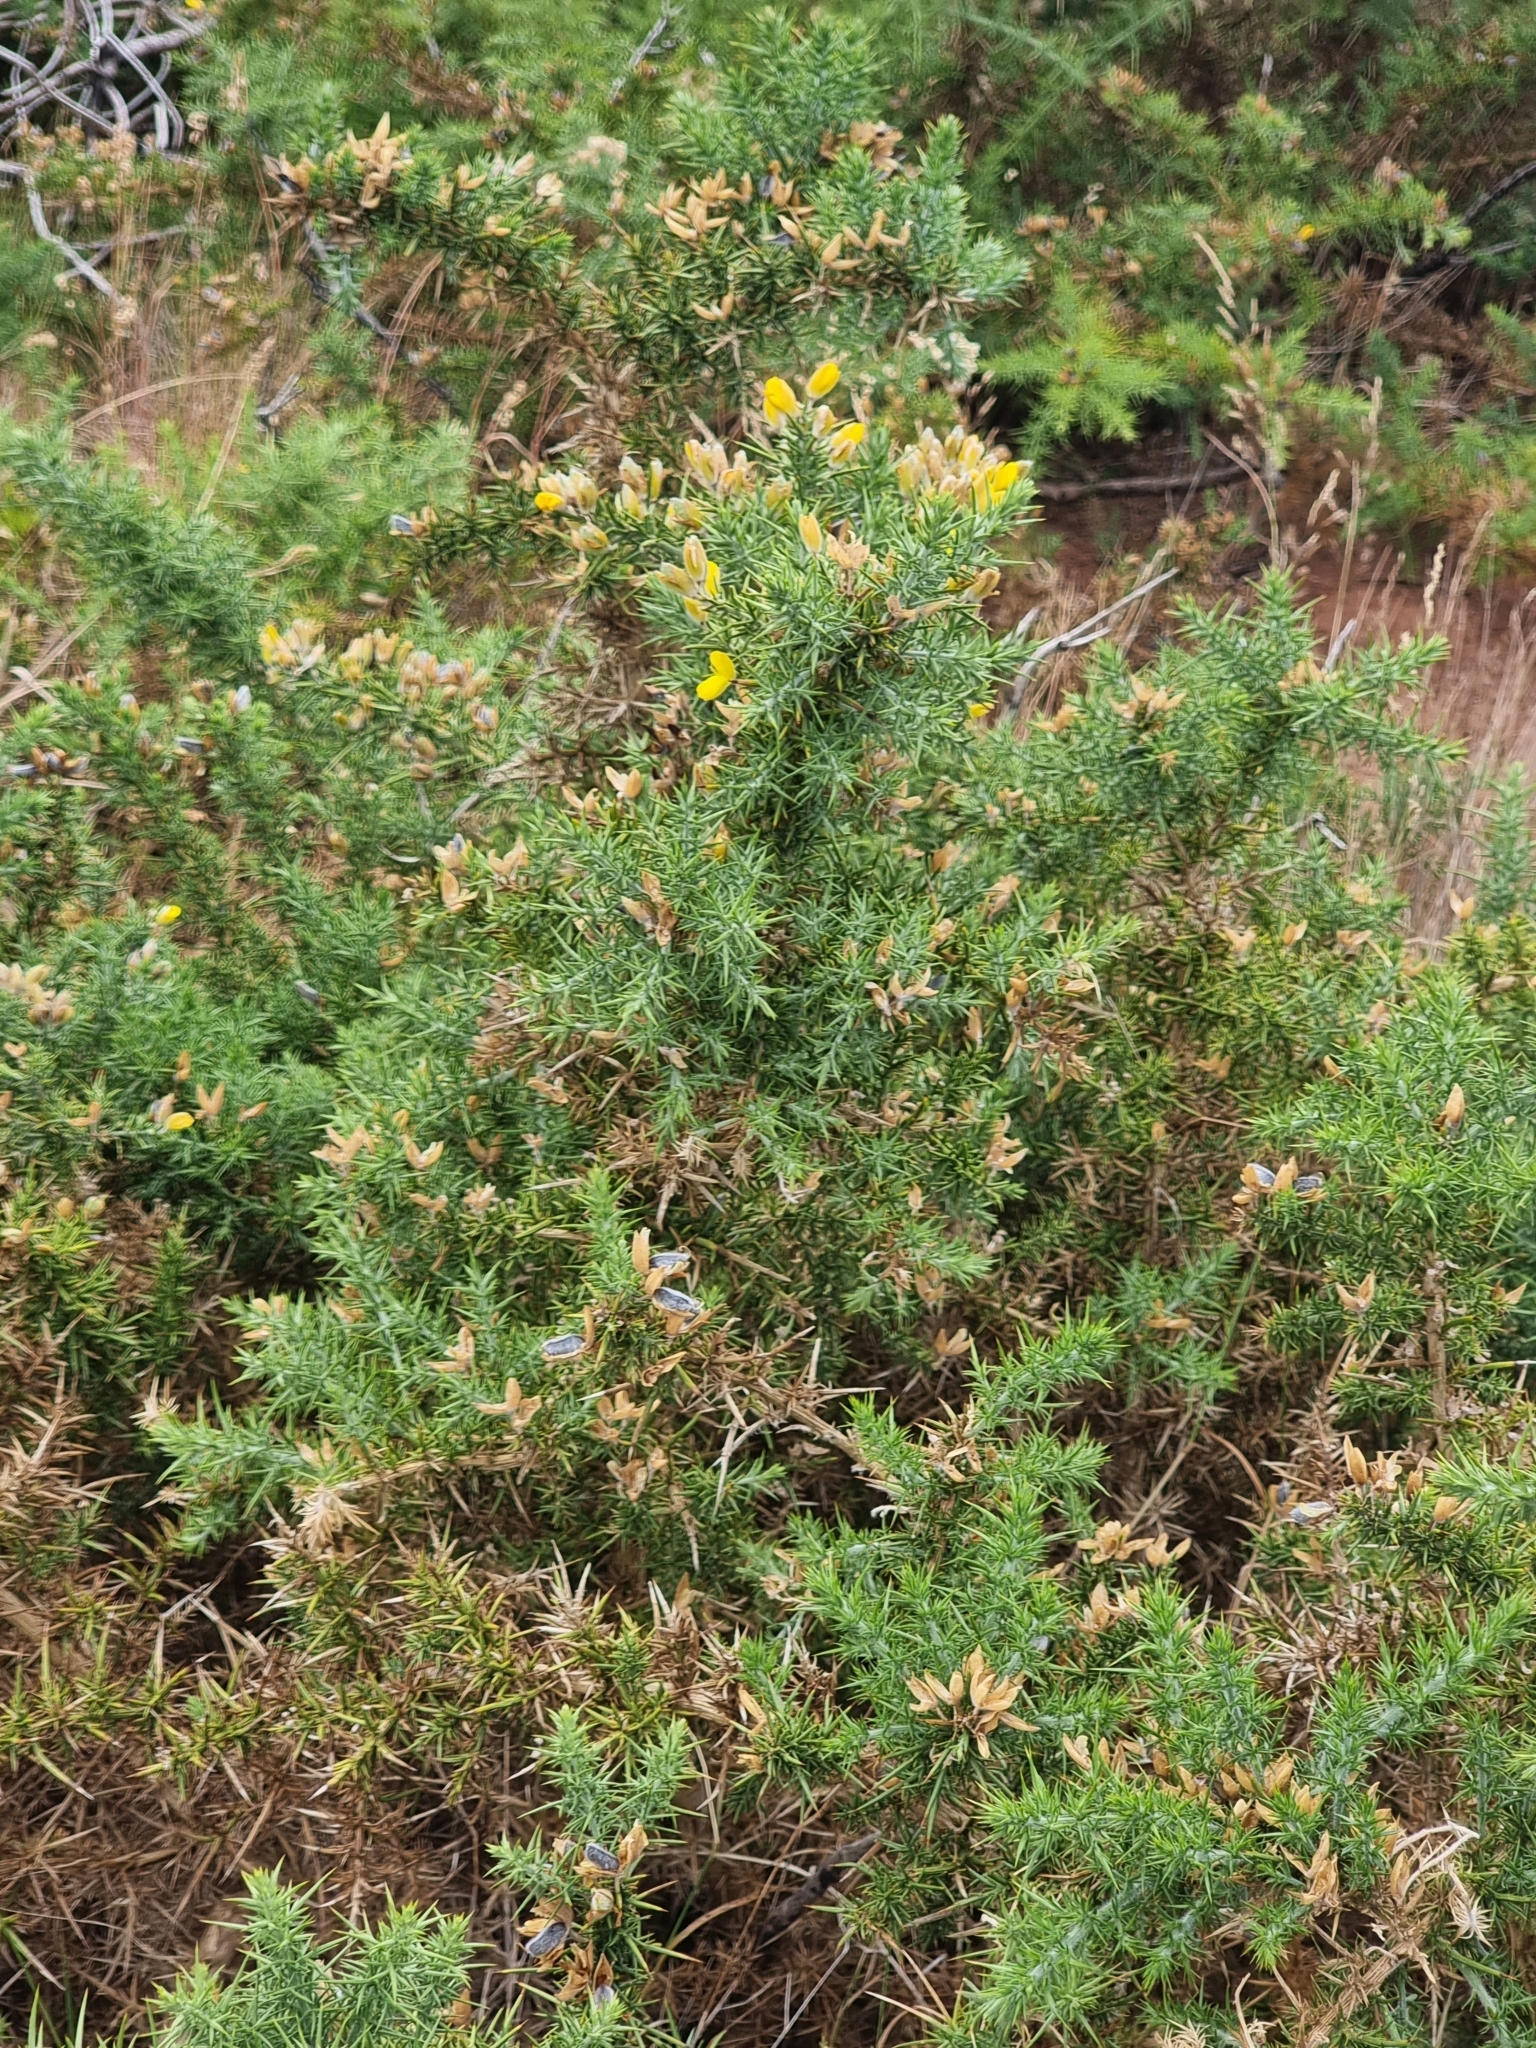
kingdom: Plantae
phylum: Tracheophyta
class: Magnoliopsida
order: Fabales
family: Fabaceae
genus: Ulex
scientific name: Ulex europaeus
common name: Common gorse
